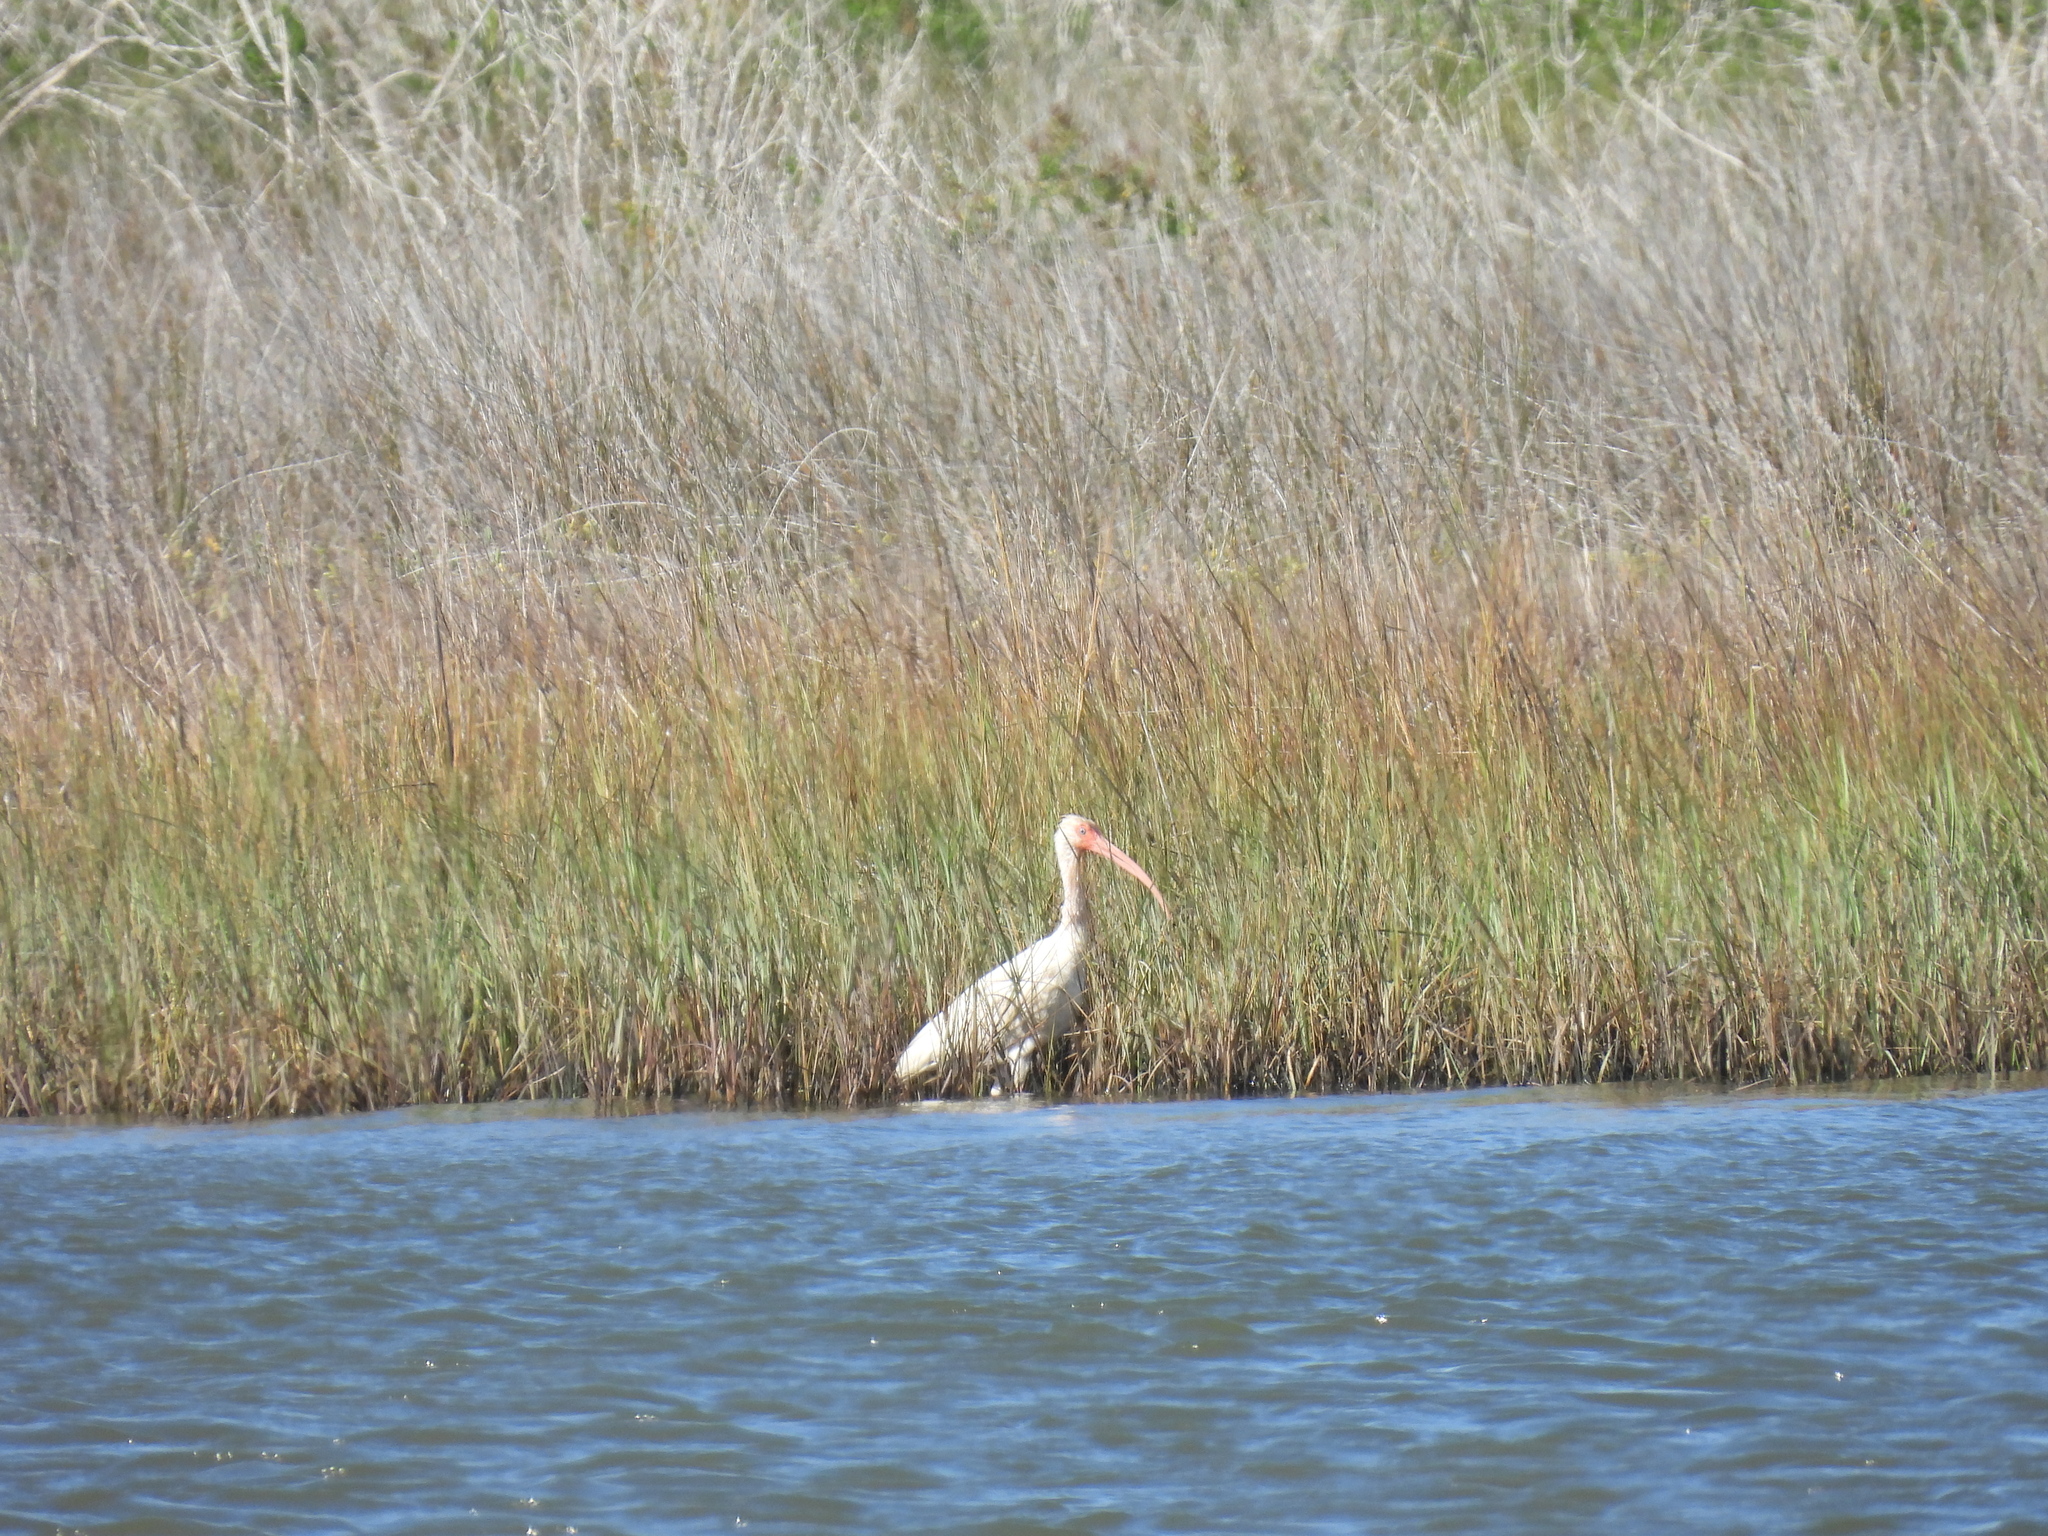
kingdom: Animalia
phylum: Chordata
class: Aves
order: Pelecaniformes
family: Threskiornithidae
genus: Eudocimus
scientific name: Eudocimus albus
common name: White ibis
